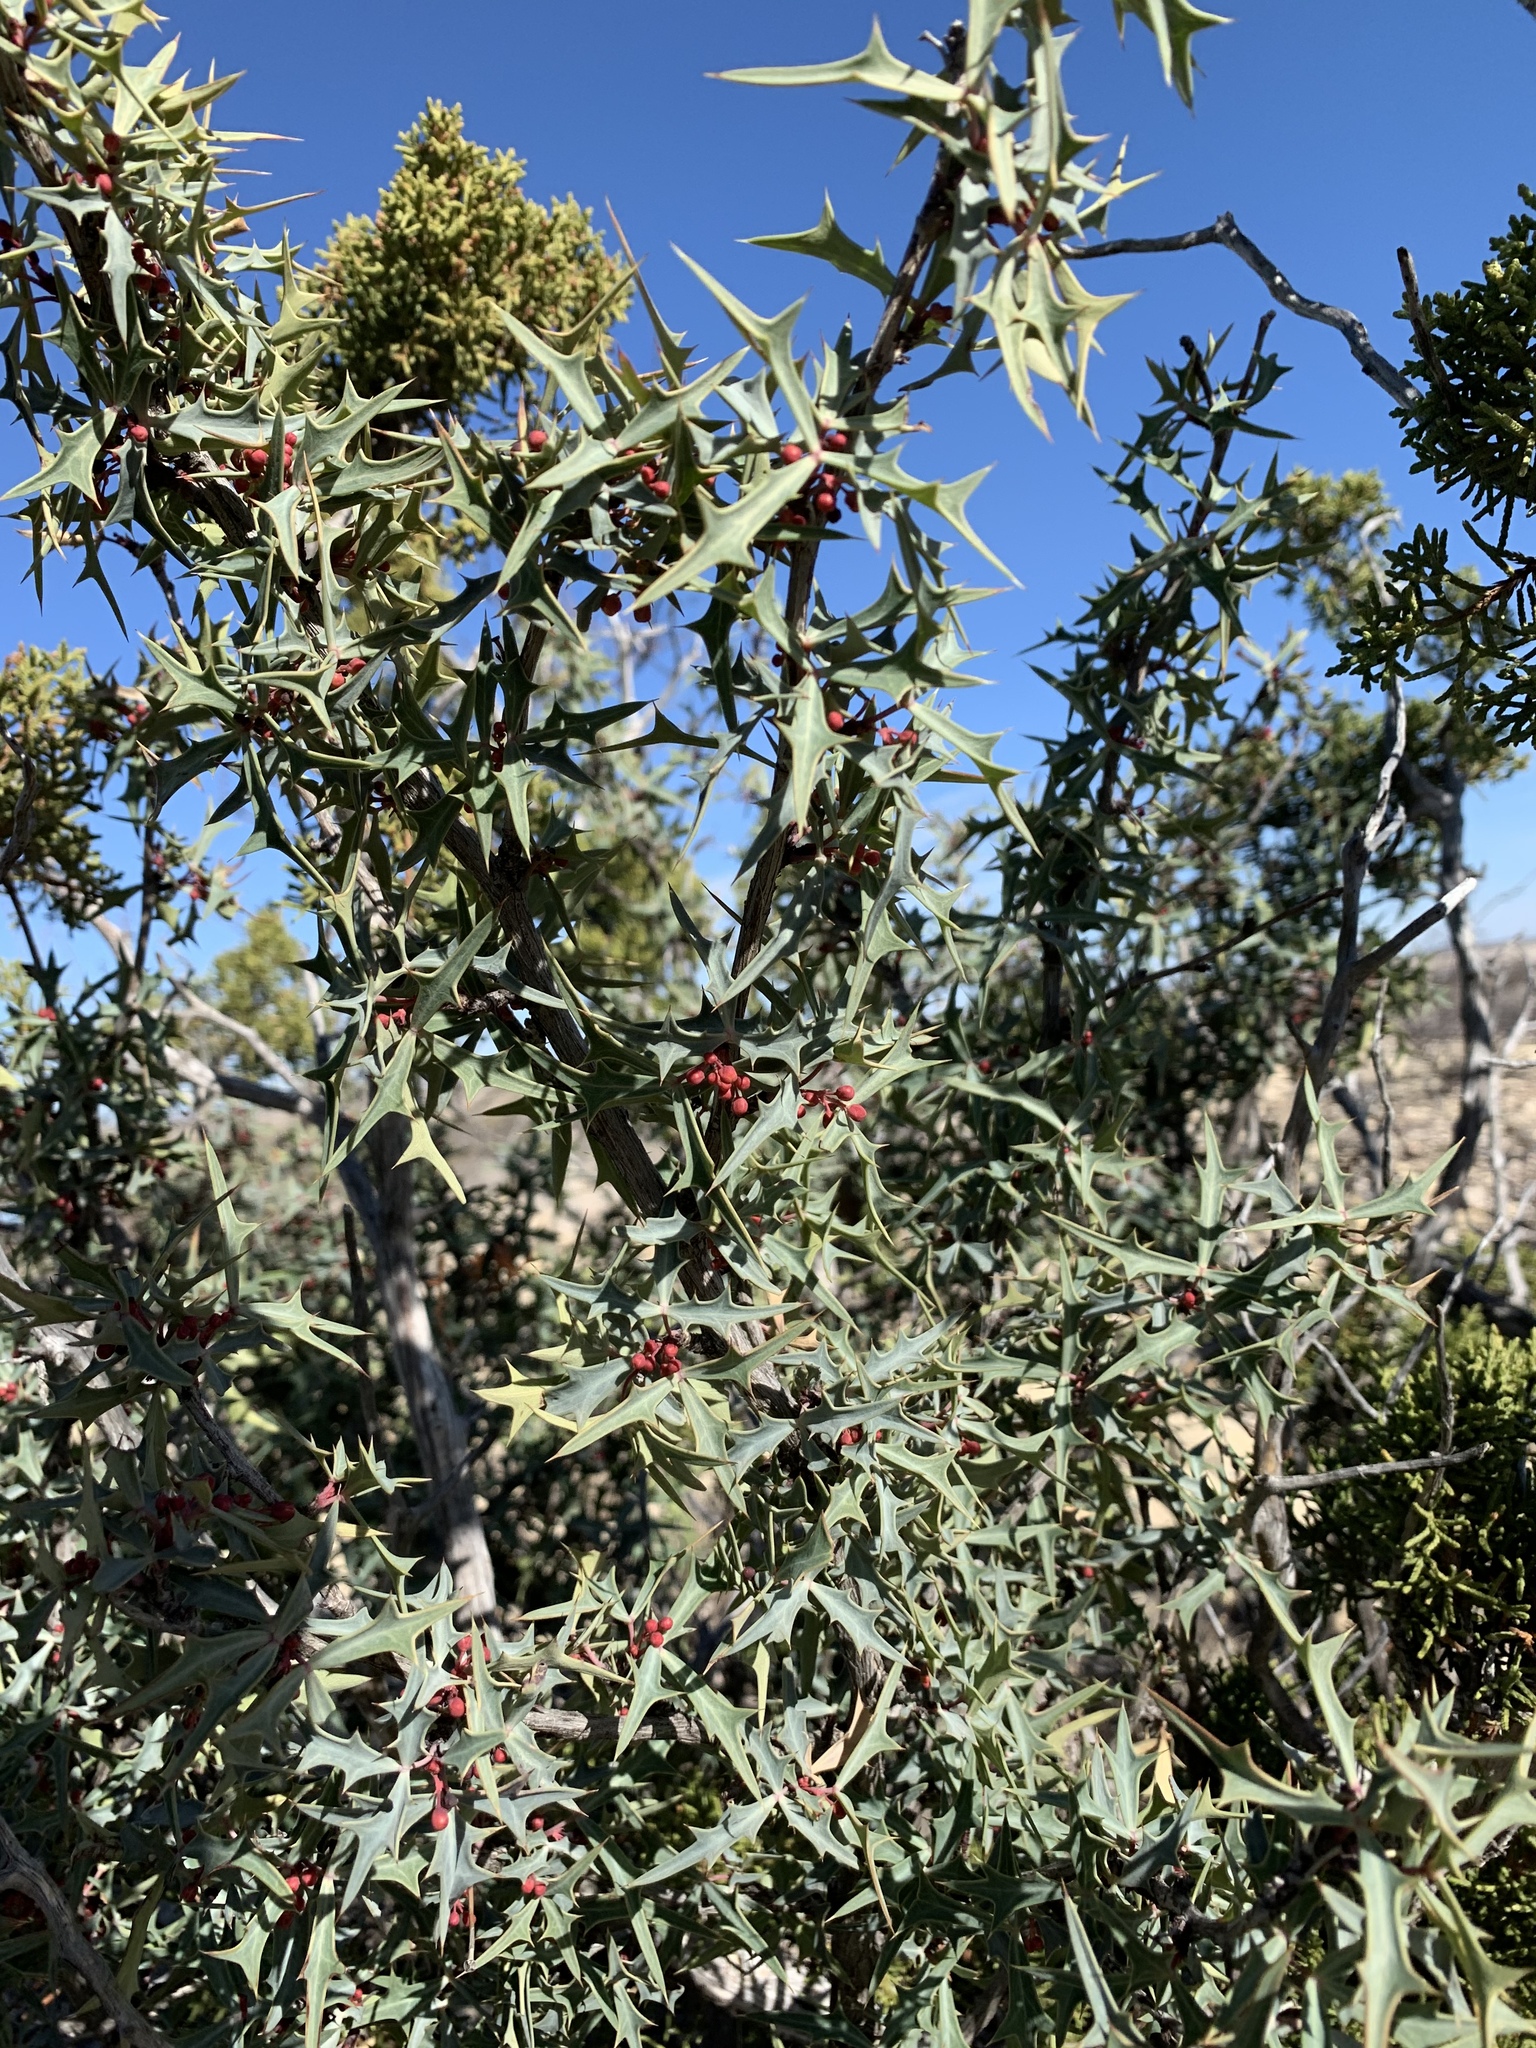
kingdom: Plantae
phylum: Tracheophyta
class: Magnoliopsida
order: Ranunculales
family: Berberidaceae
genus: Alloberberis
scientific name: Alloberberis trifoliolata
